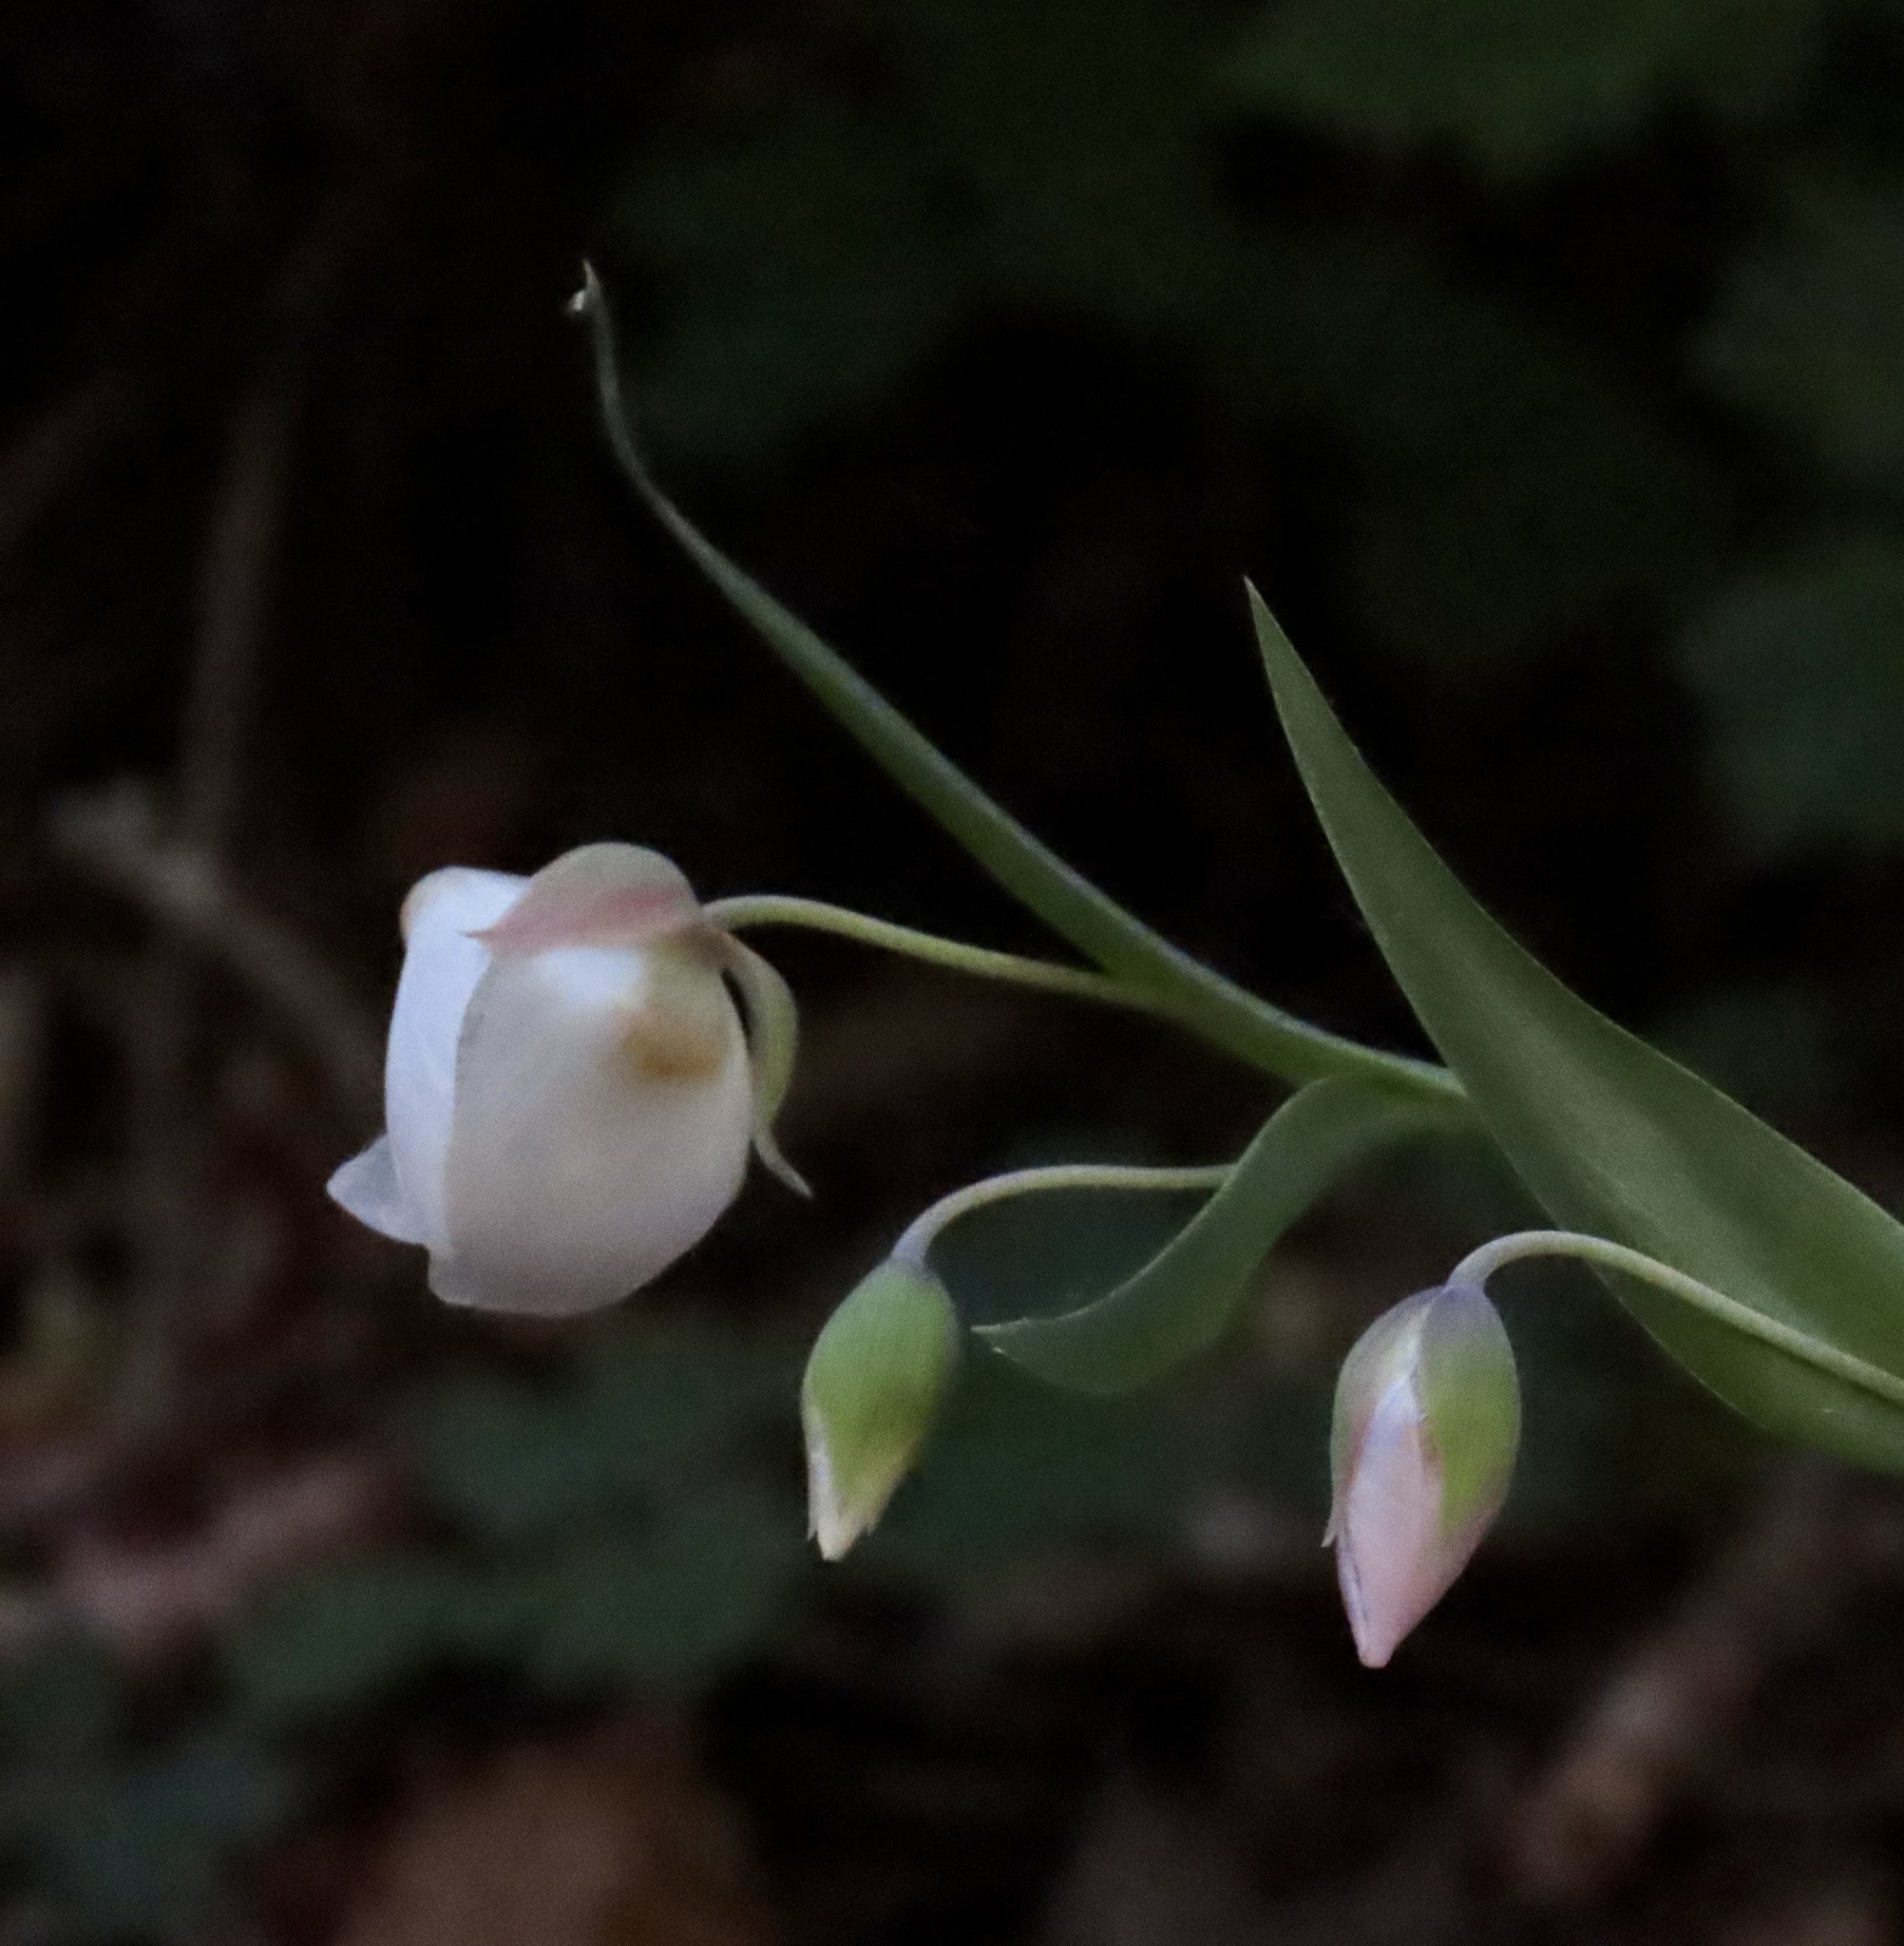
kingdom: Plantae
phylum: Tracheophyta
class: Liliopsida
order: Liliales
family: Liliaceae
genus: Calochortus
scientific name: Calochortus albus
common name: Fairy-lantern
